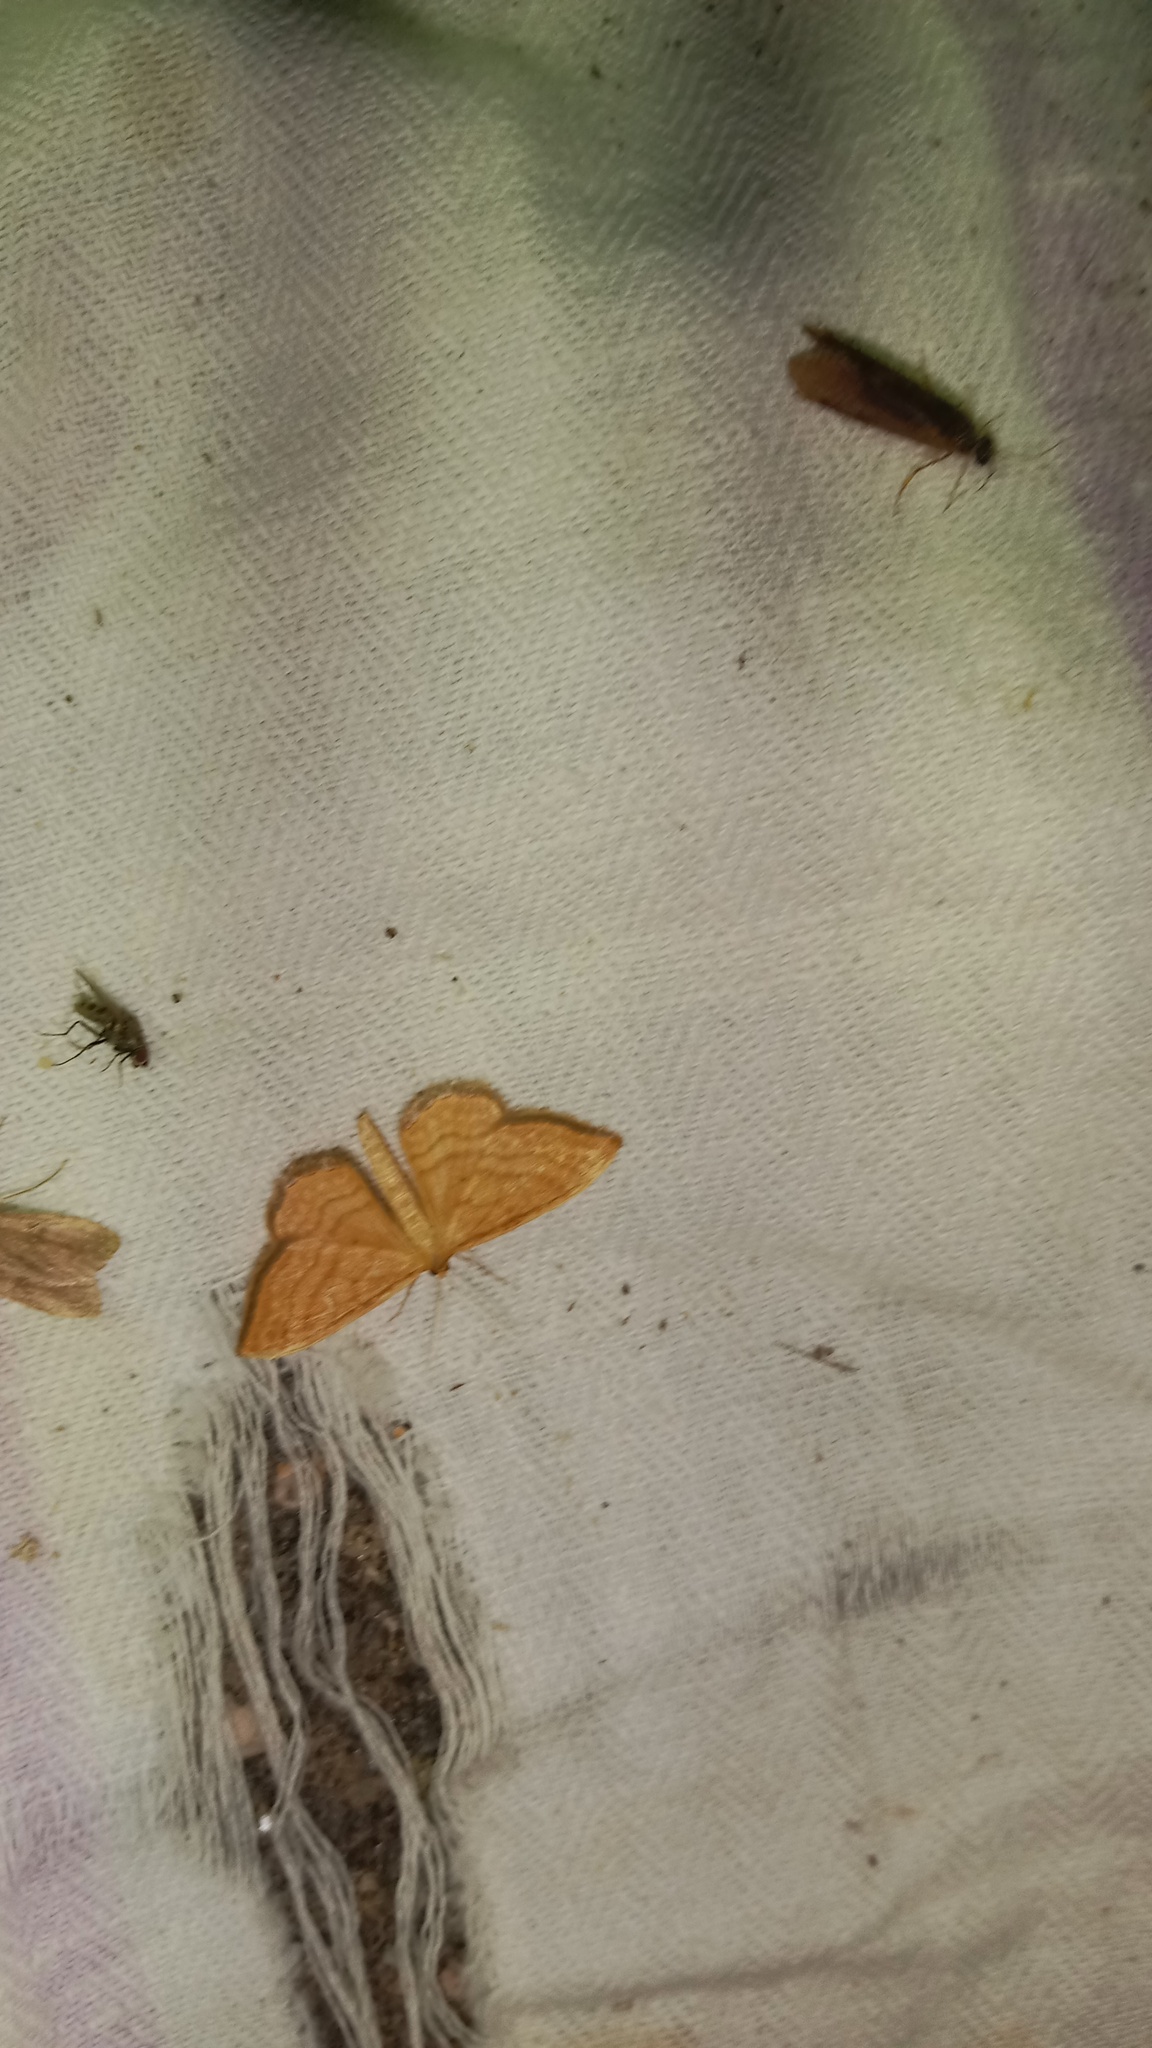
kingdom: Animalia
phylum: Arthropoda
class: Insecta
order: Lepidoptera
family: Geometridae
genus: Idaea
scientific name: Idaea ochrata
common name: Bright wave
